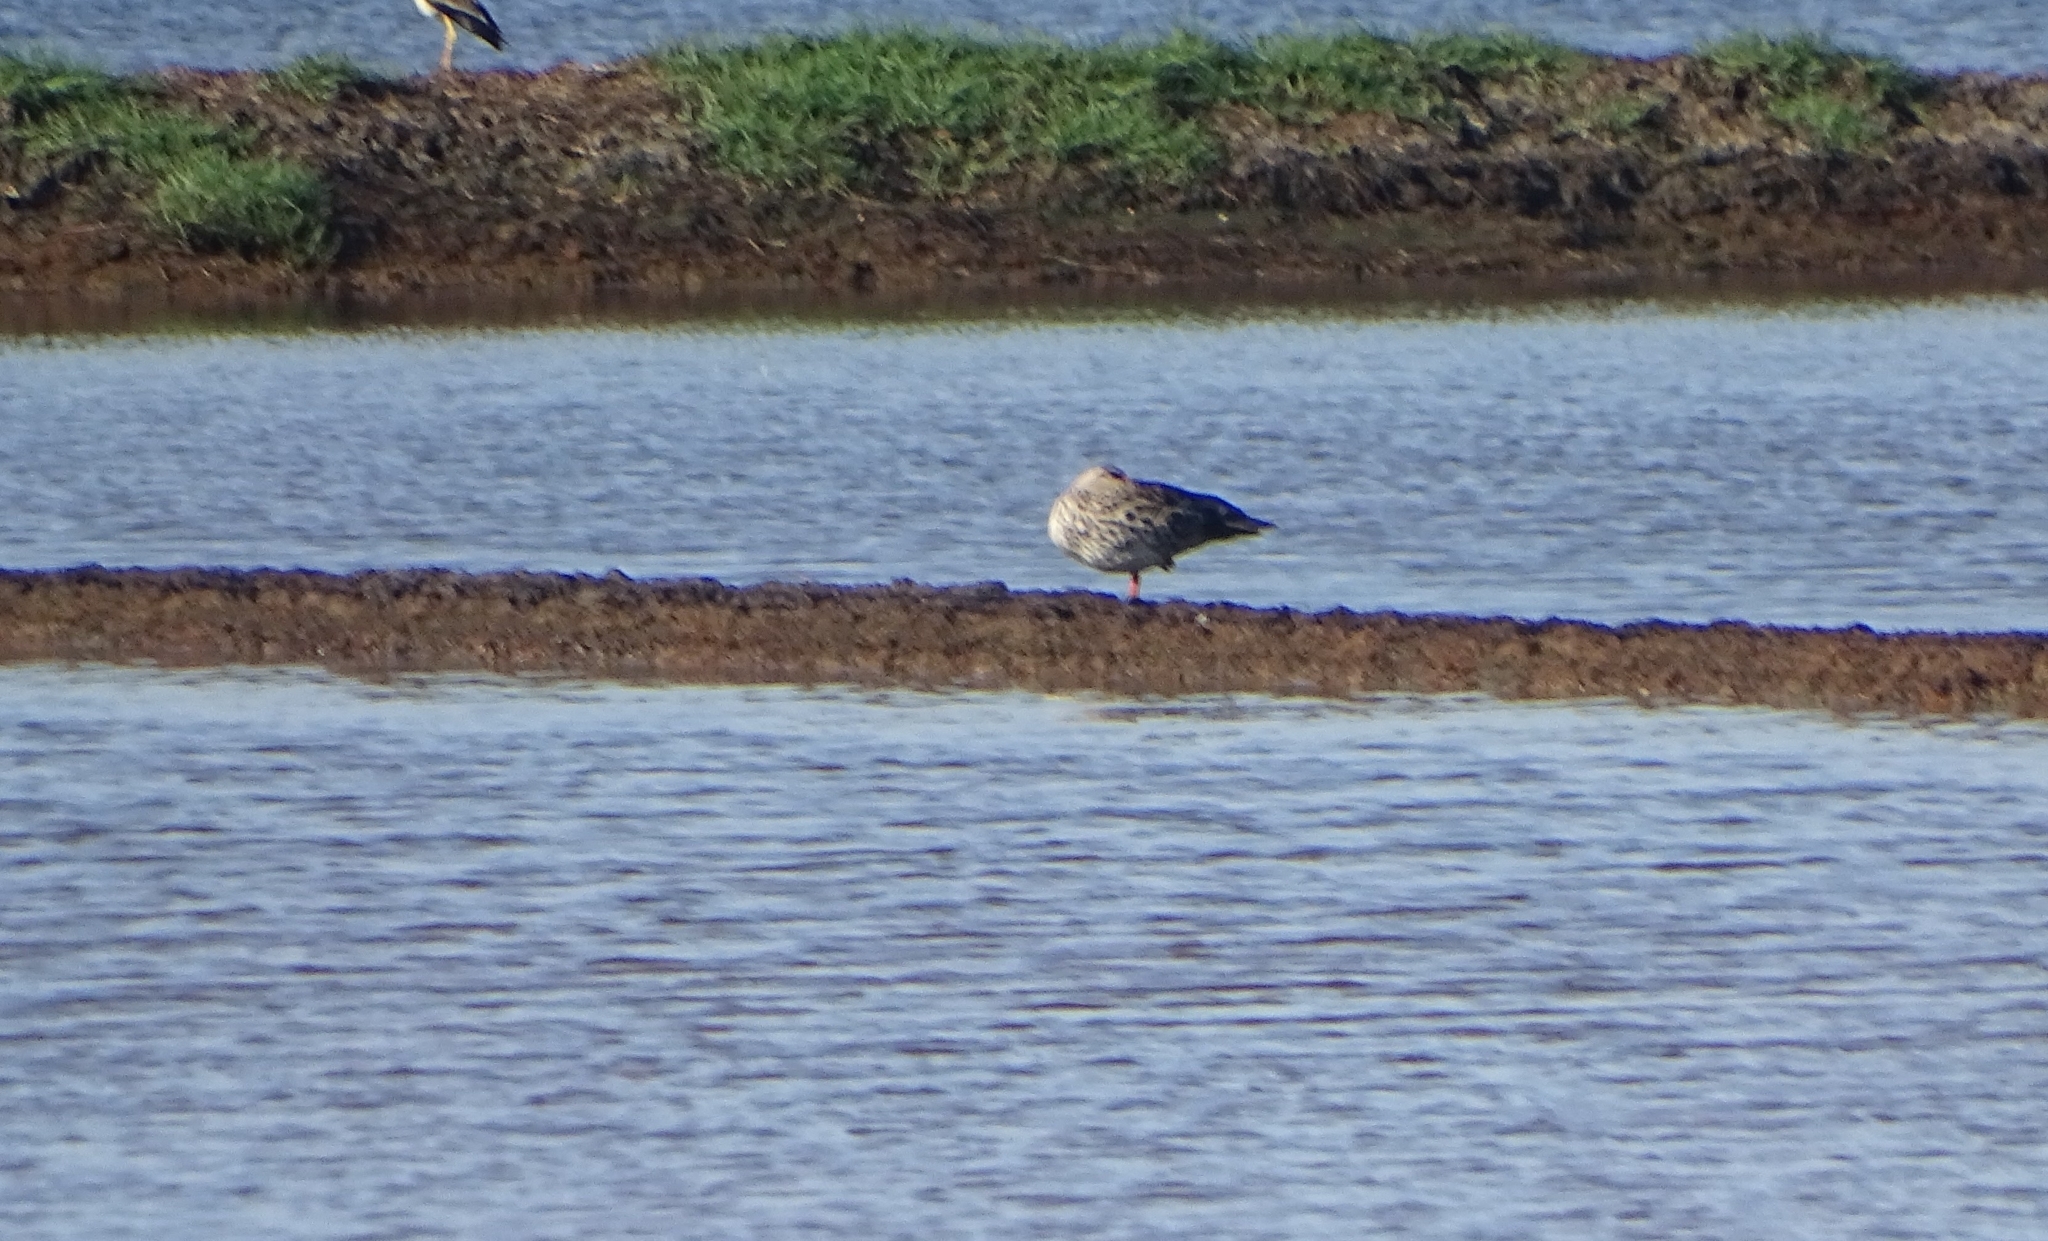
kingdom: Animalia
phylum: Chordata
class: Aves
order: Anseriformes
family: Anatidae
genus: Anas
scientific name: Anas poecilorhyncha
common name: Indian spot-billed duck
